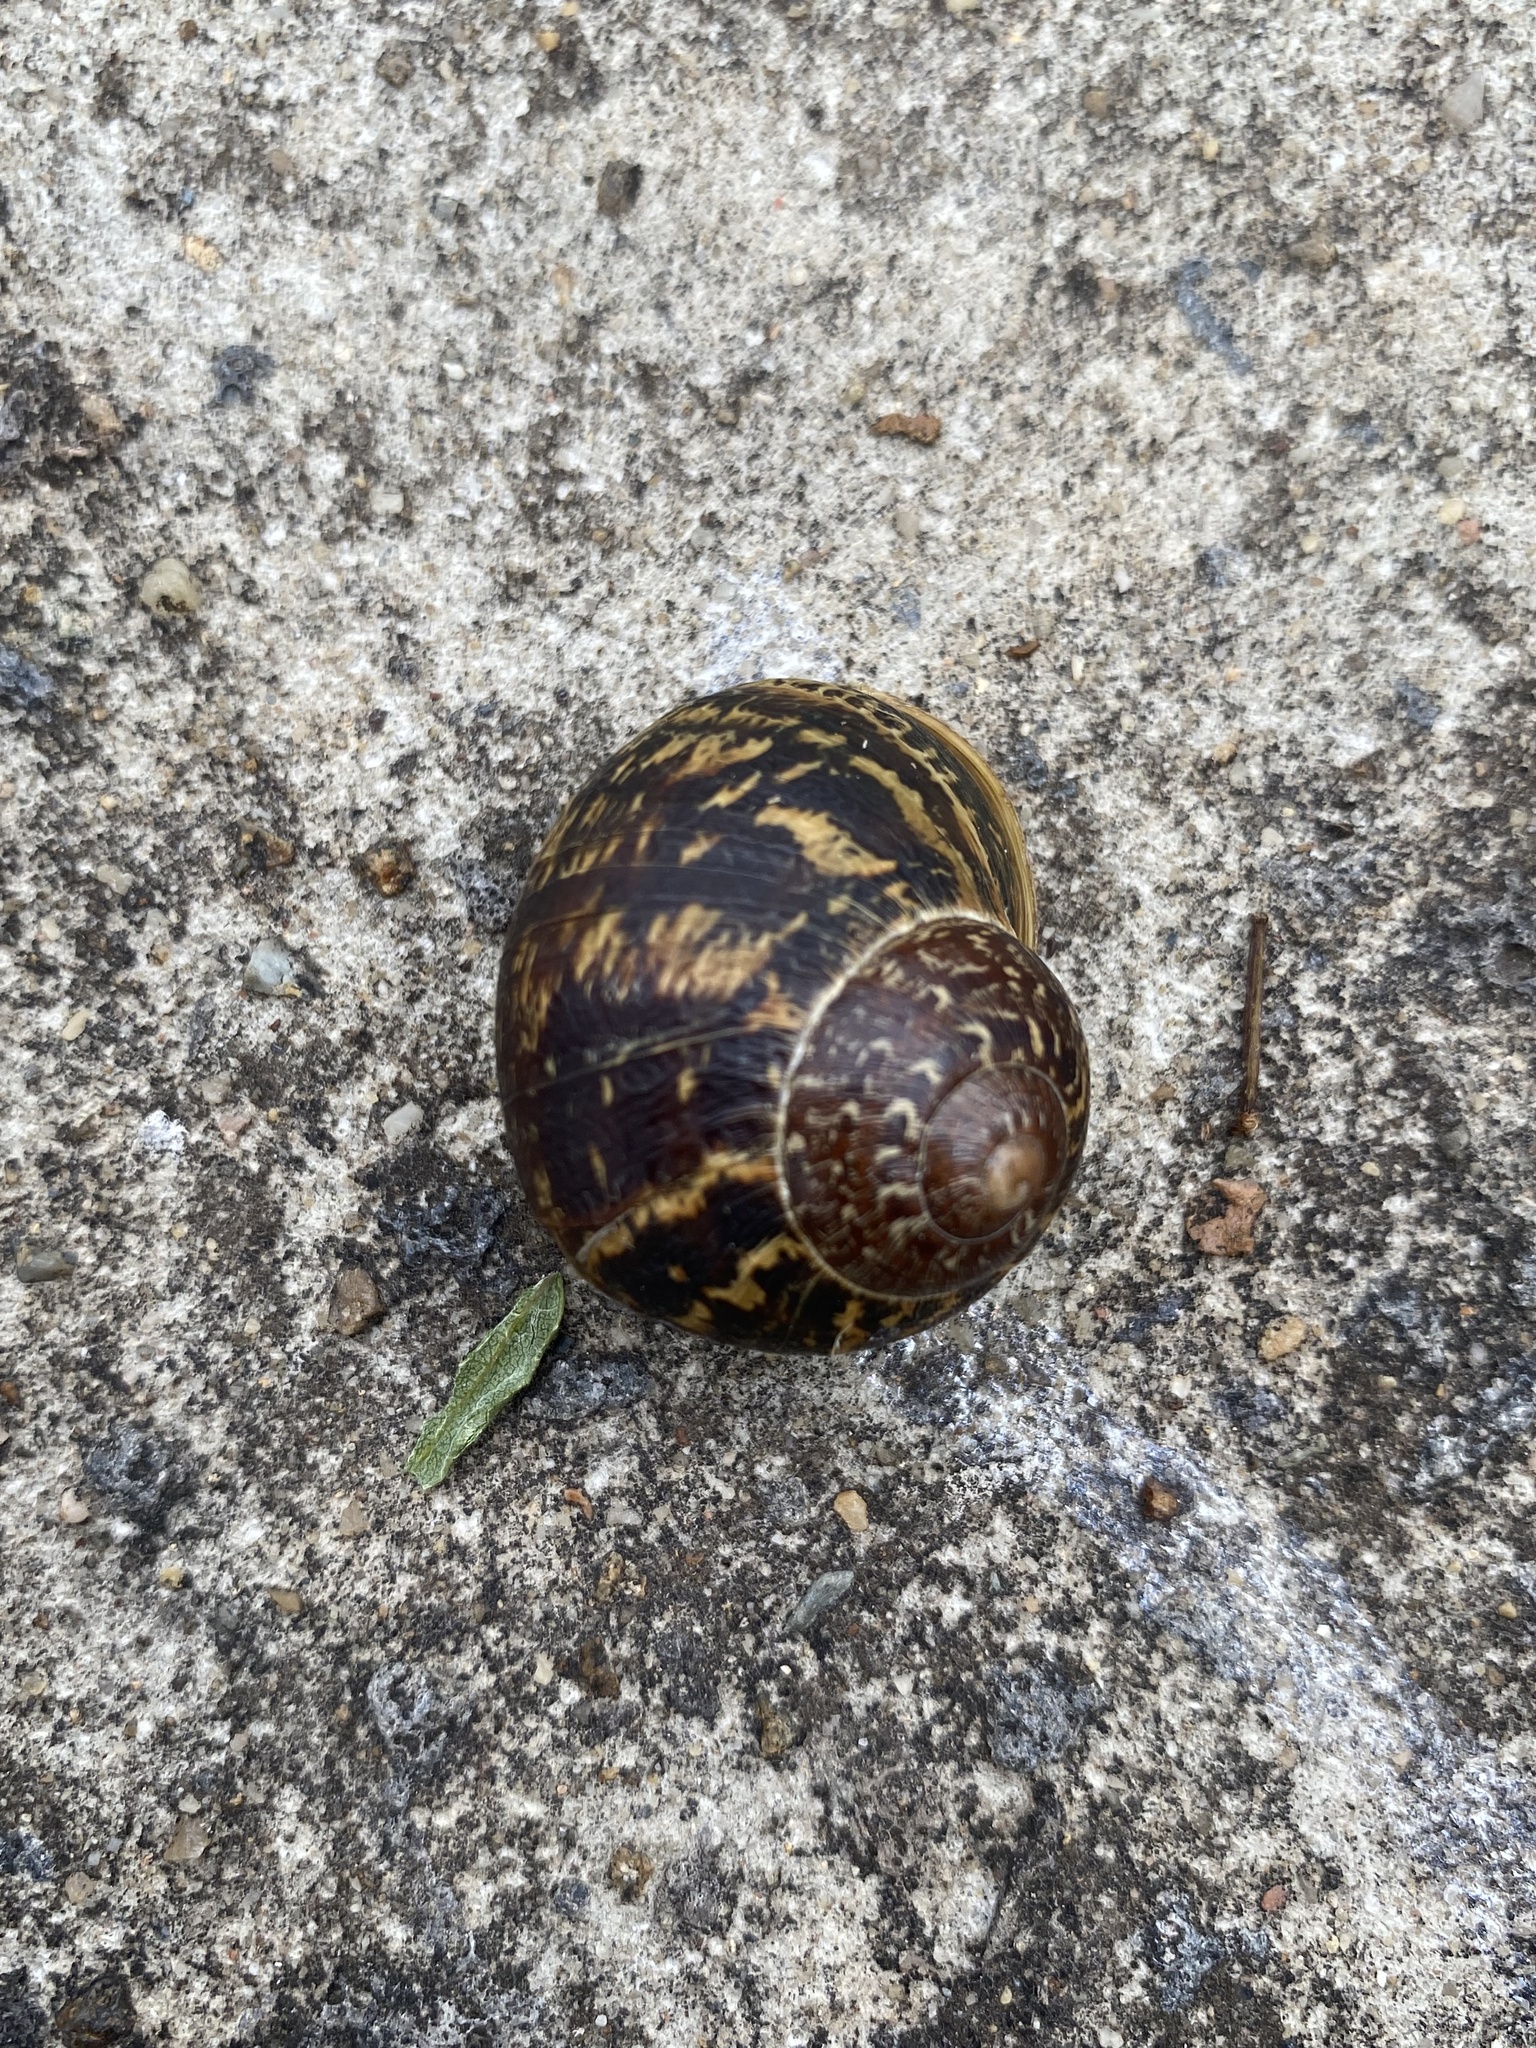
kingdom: Animalia
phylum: Mollusca
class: Gastropoda
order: Stylommatophora
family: Helicidae
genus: Cornu
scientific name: Cornu aspersum
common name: Brown garden snail
